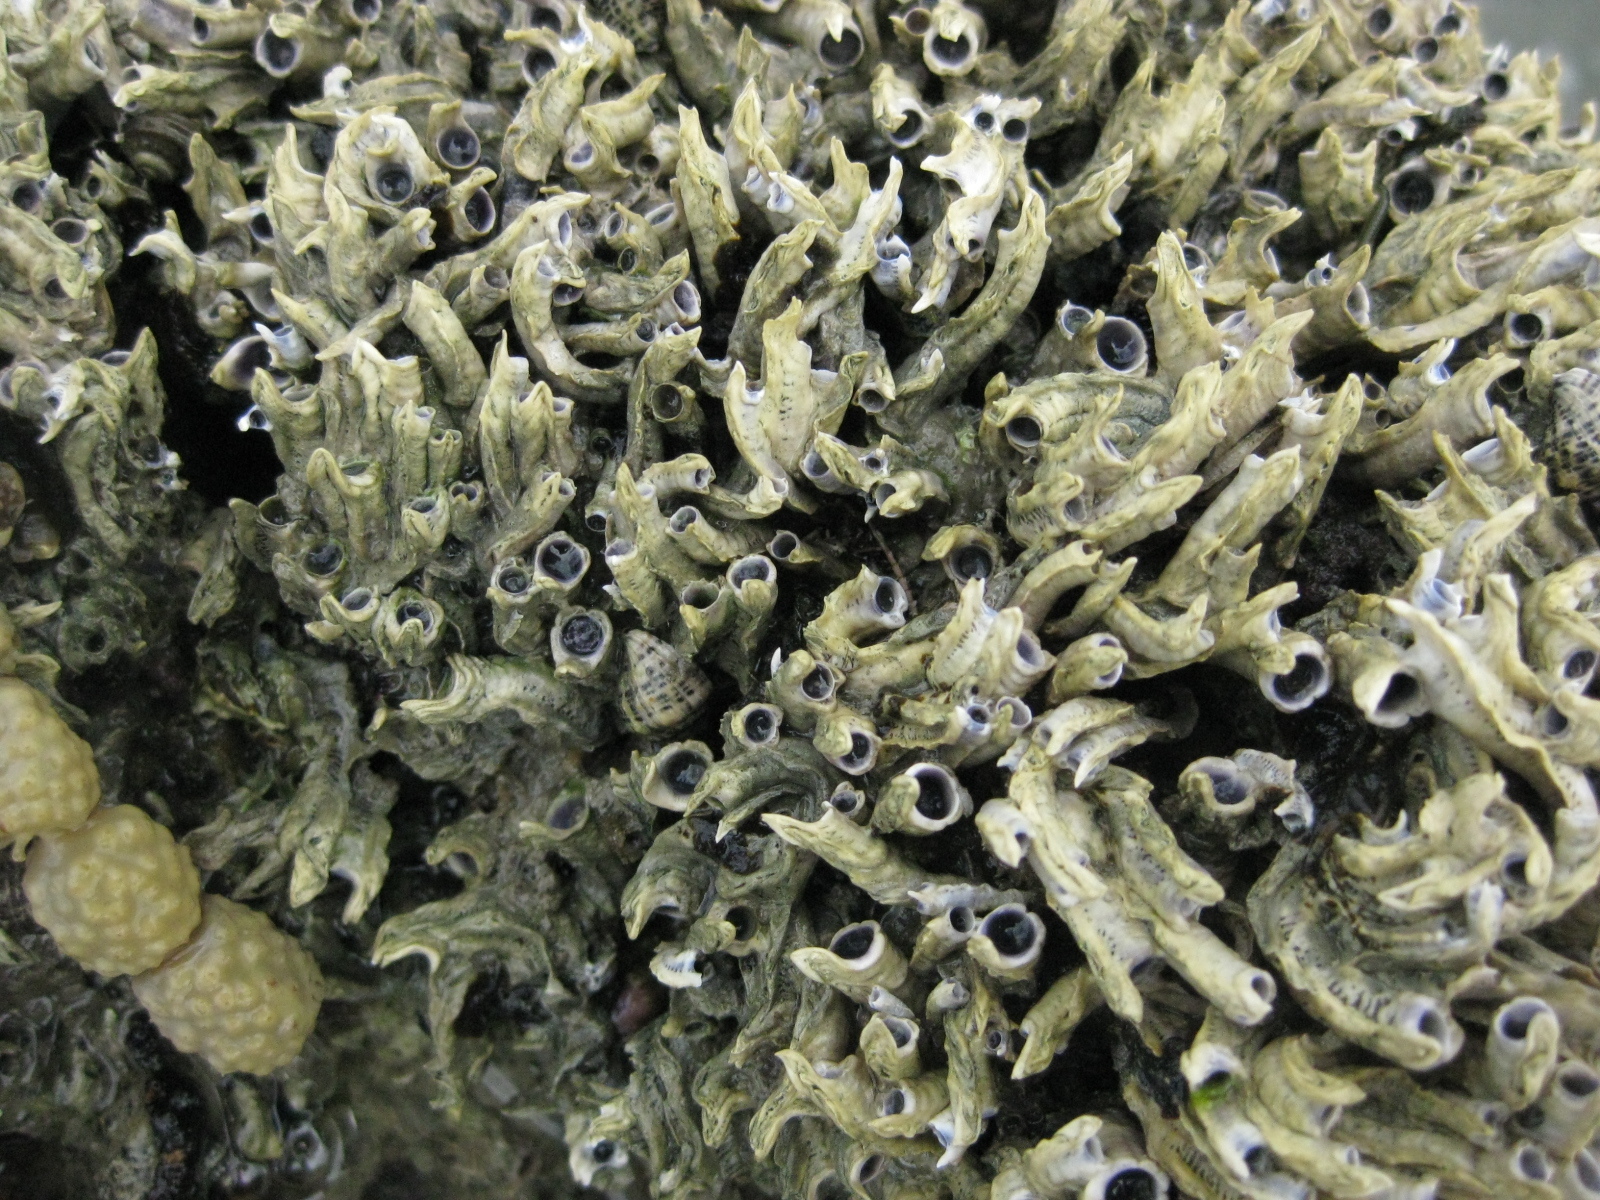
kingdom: Animalia
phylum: Annelida
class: Polychaeta
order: Sabellida
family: Serpulidae
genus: Spirobranchus
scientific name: Spirobranchus cariniferus
